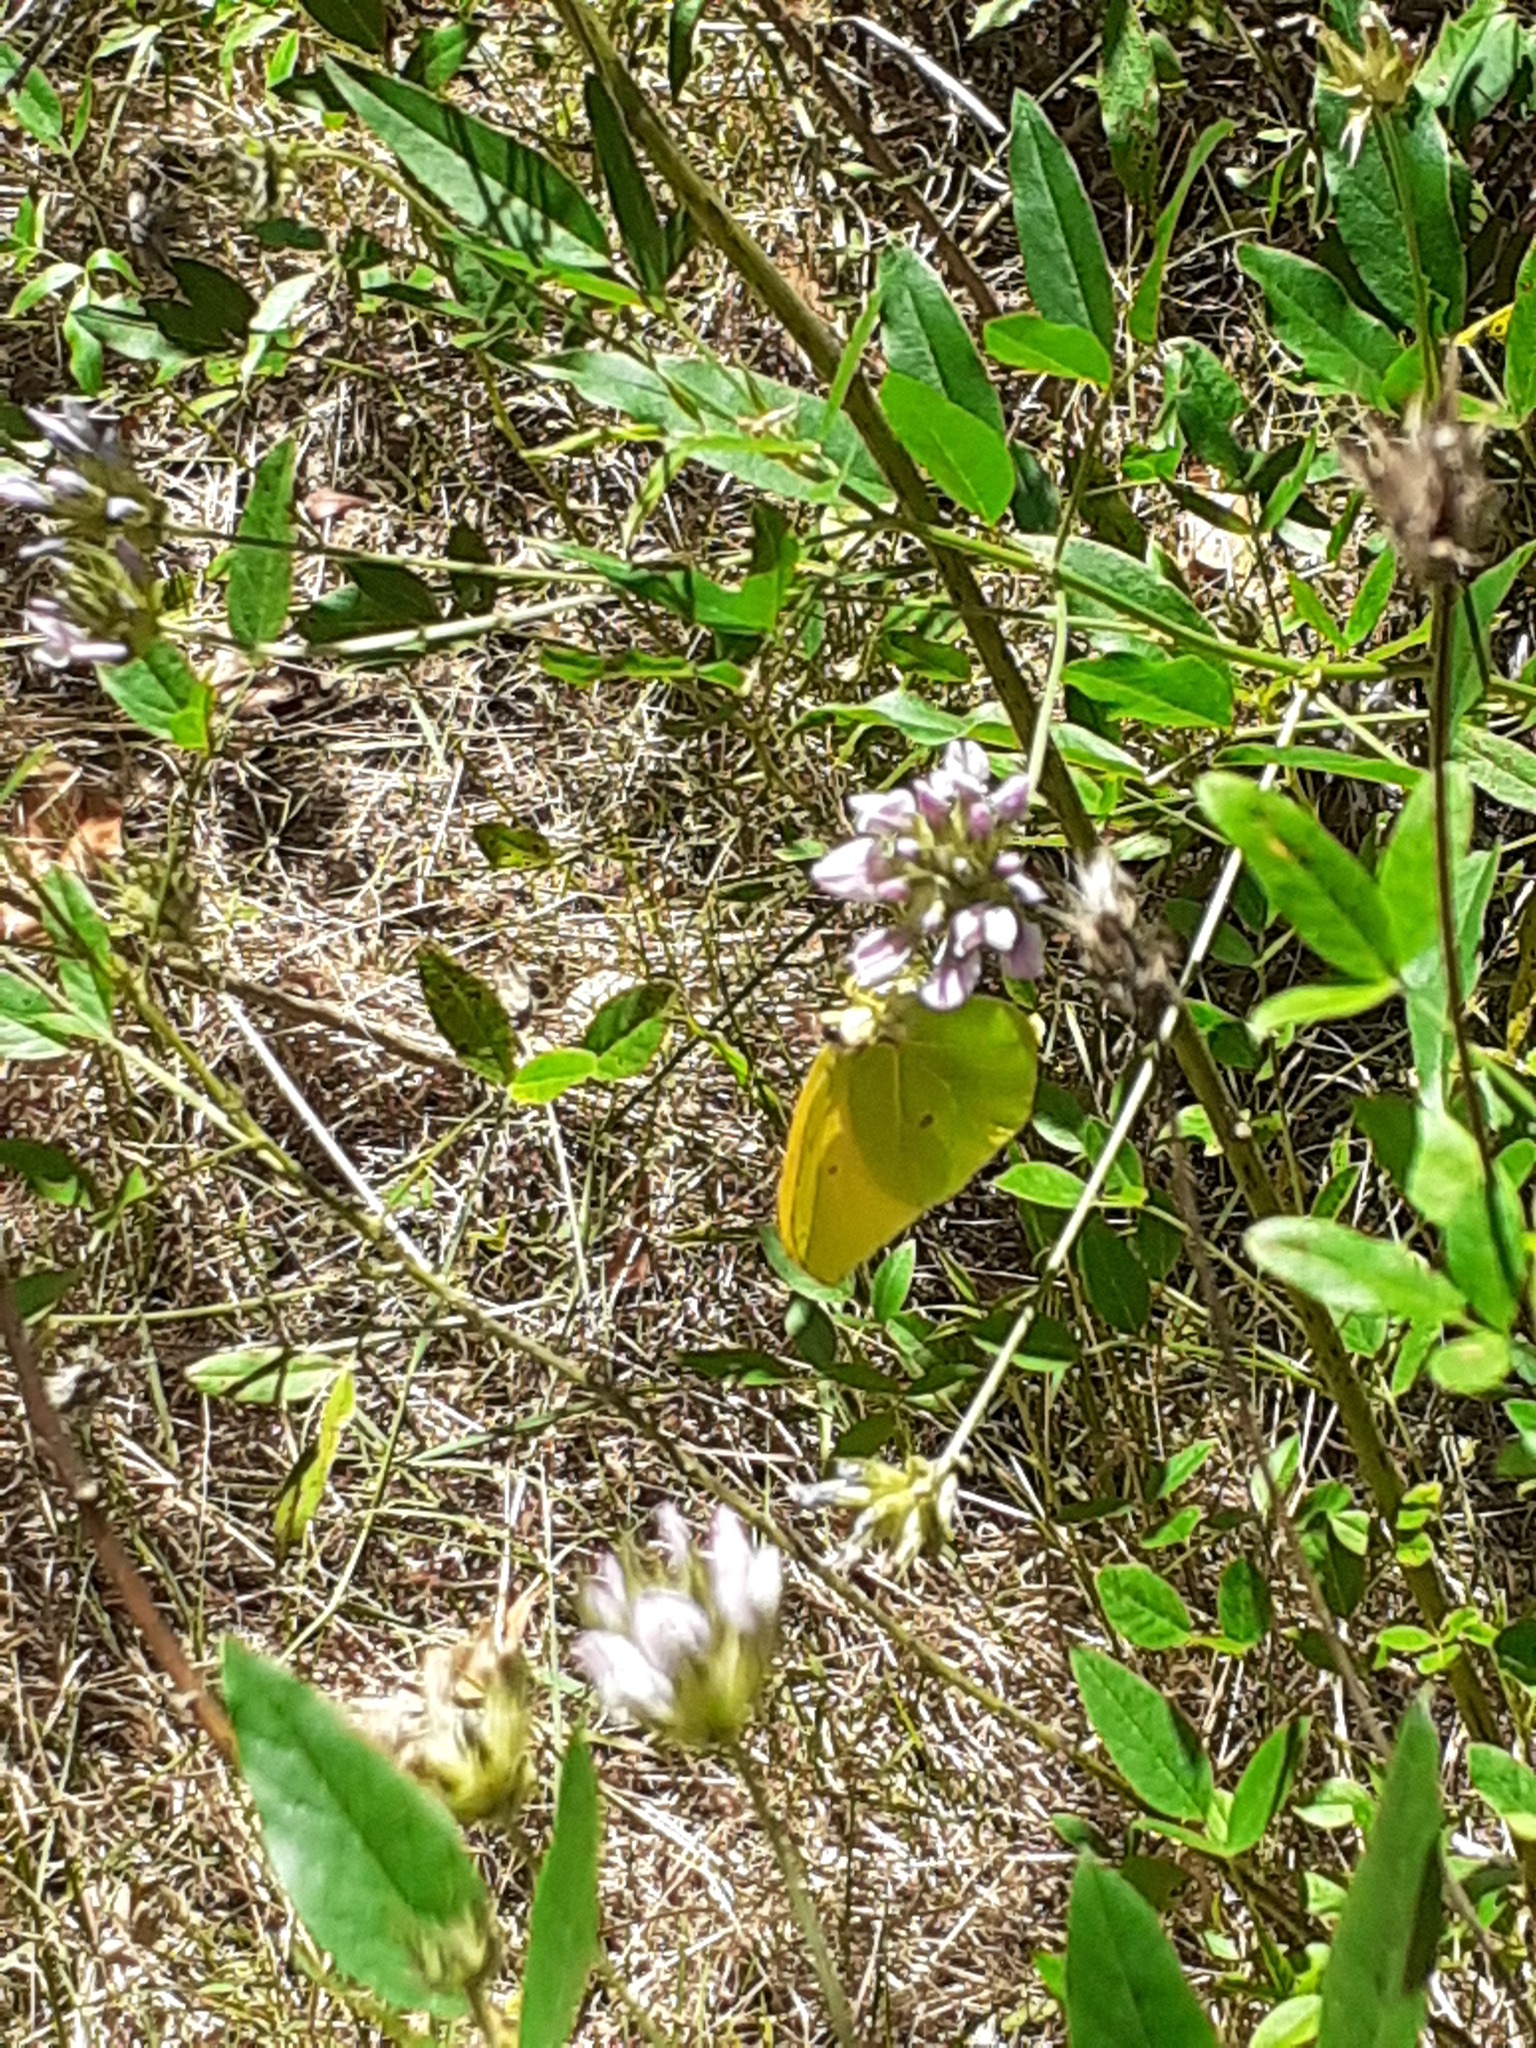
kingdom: Animalia
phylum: Arthropoda
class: Insecta
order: Lepidoptera
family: Pieridae
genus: Gonepteryx
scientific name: Gonepteryx cleobule
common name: Canary brimstone
